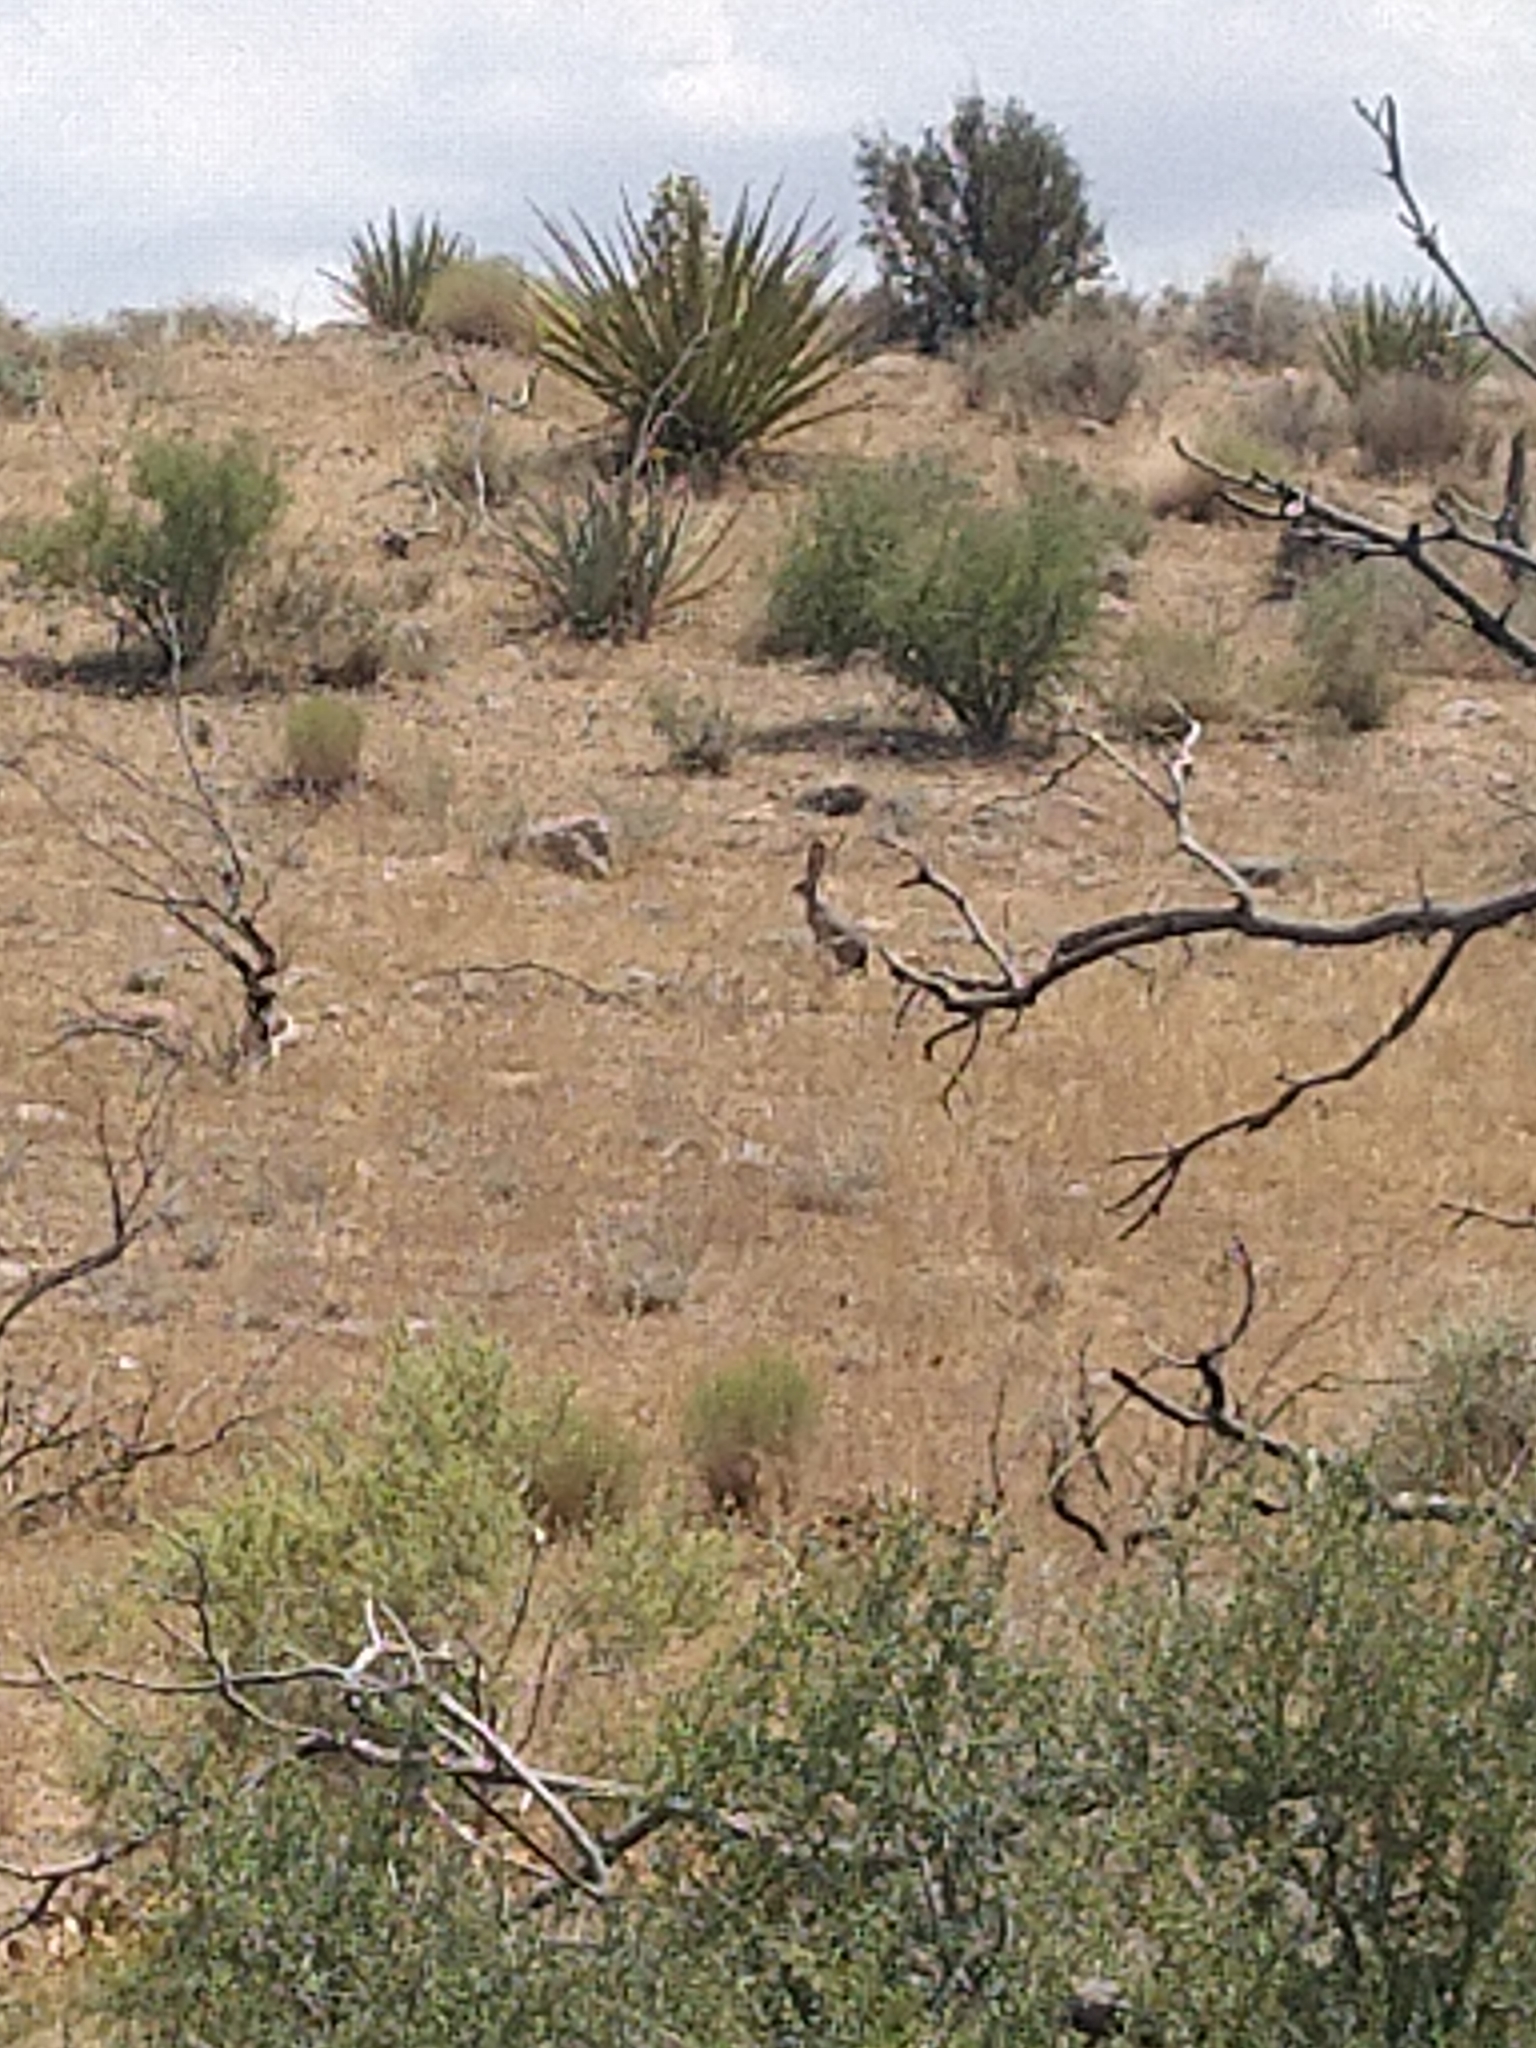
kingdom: Animalia
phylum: Chordata
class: Mammalia
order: Lagomorpha
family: Leporidae
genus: Lepus
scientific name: Lepus californicus
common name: Black-tailed jackrabbit
